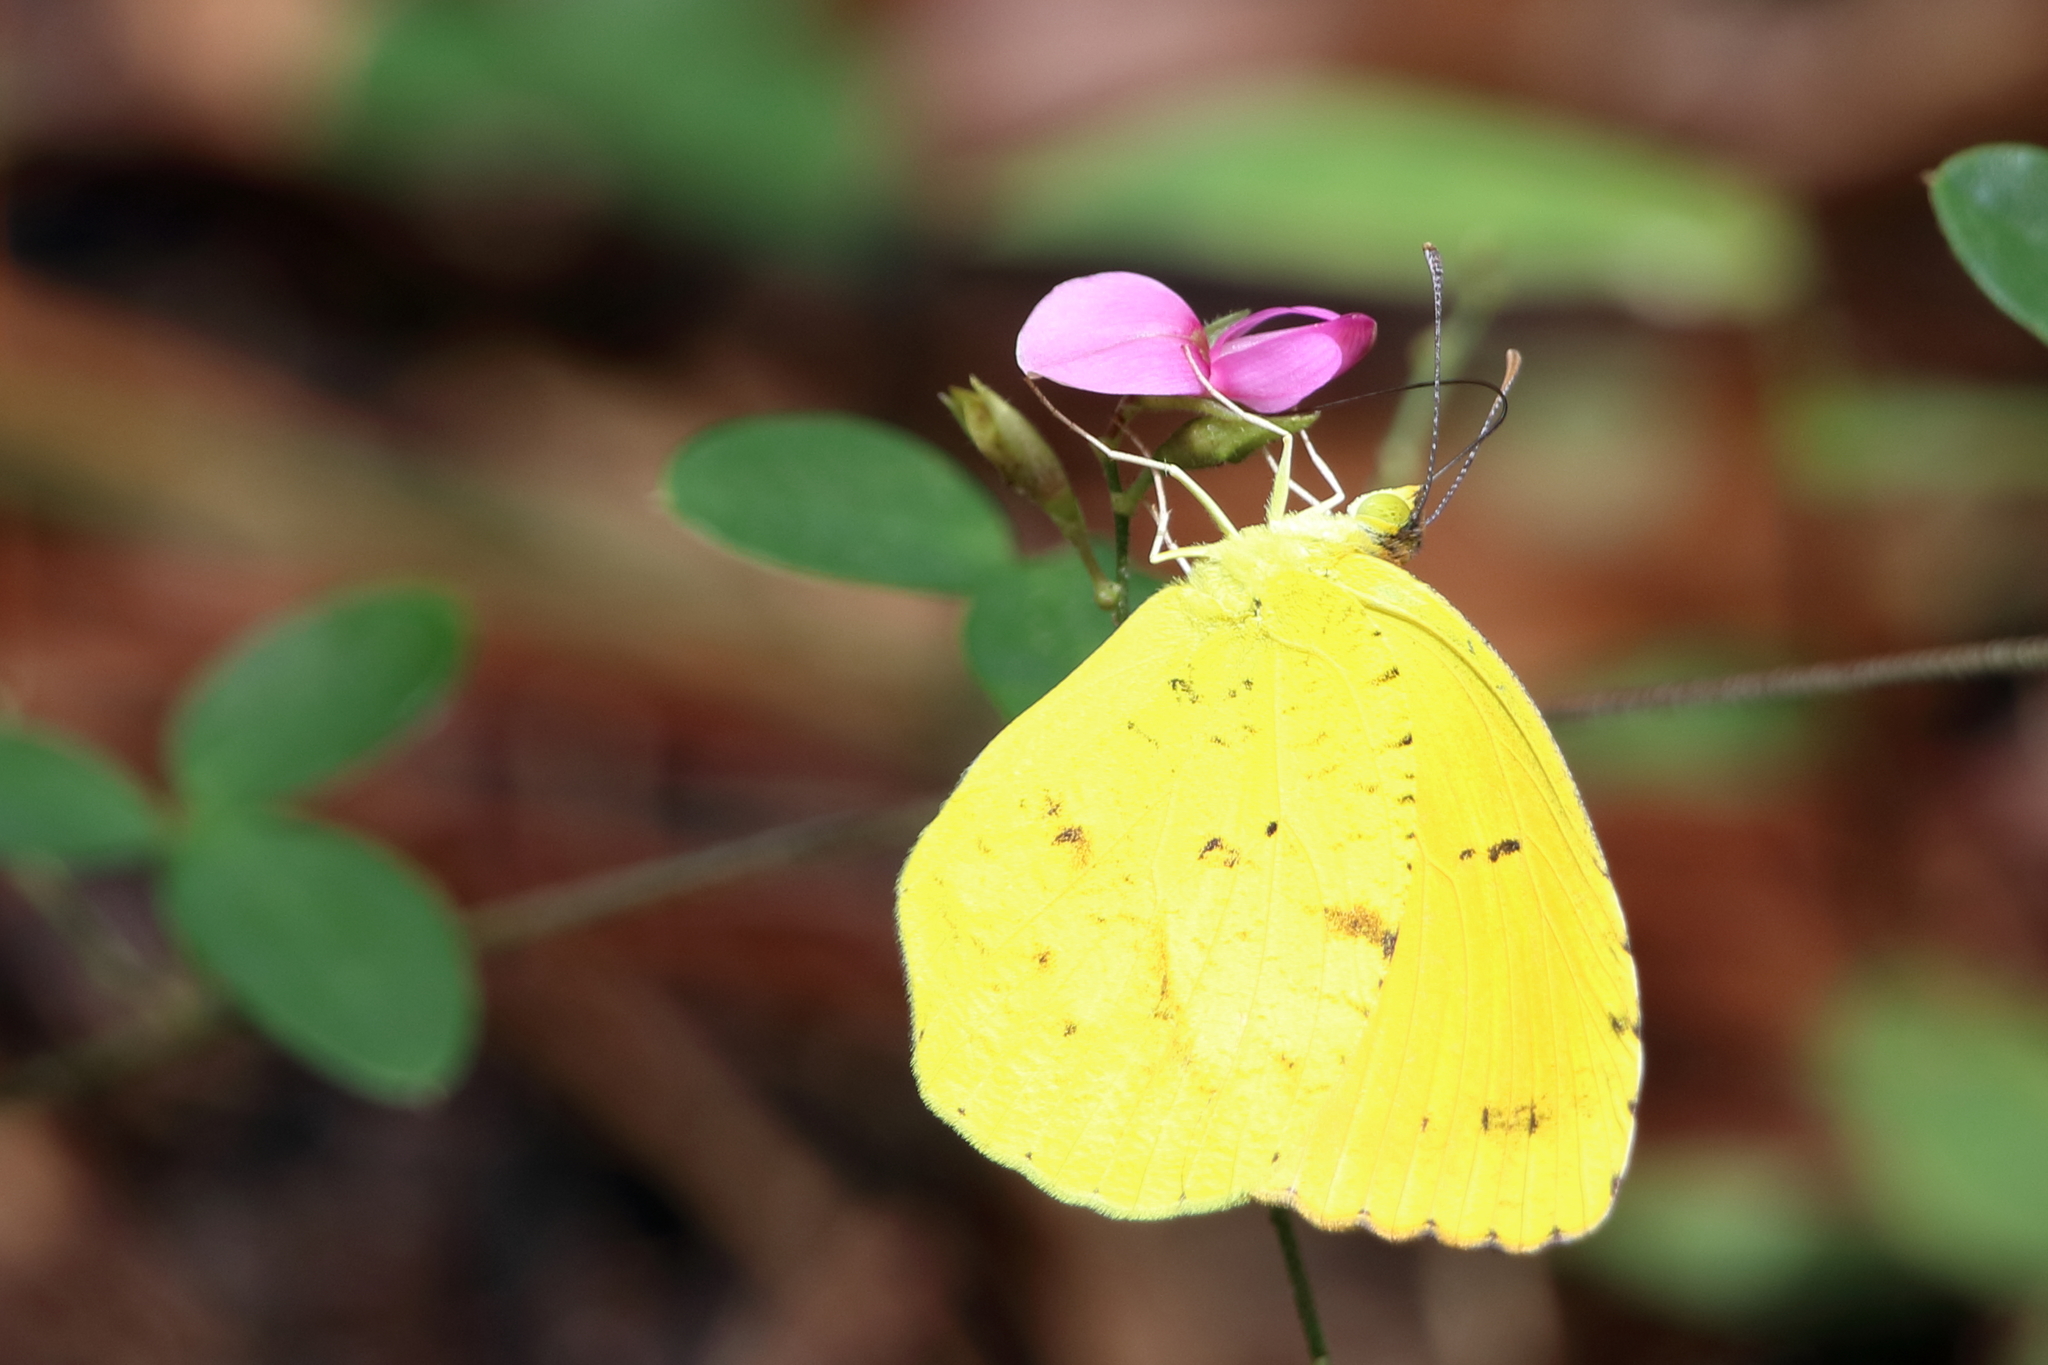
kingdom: Animalia
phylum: Arthropoda
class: Insecta
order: Lepidoptera
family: Pieridae
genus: Abaeis
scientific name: Abaeis nicippe
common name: Sleepy orange
